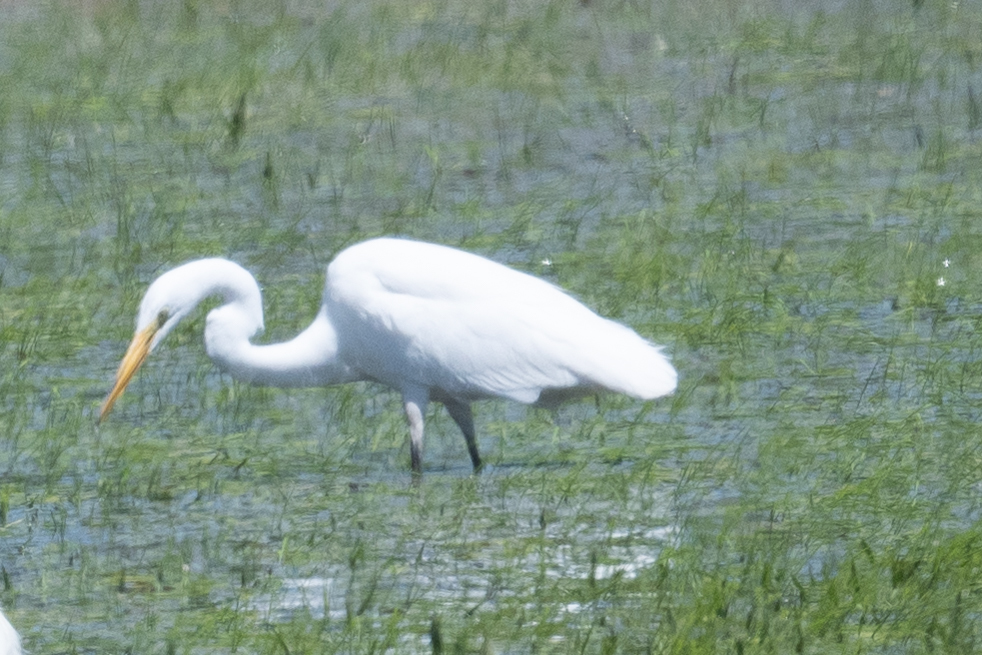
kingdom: Animalia
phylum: Chordata
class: Aves
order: Pelecaniformes
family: Ardeidae
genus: Ardea
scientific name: Ardea alba
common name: Great egret
